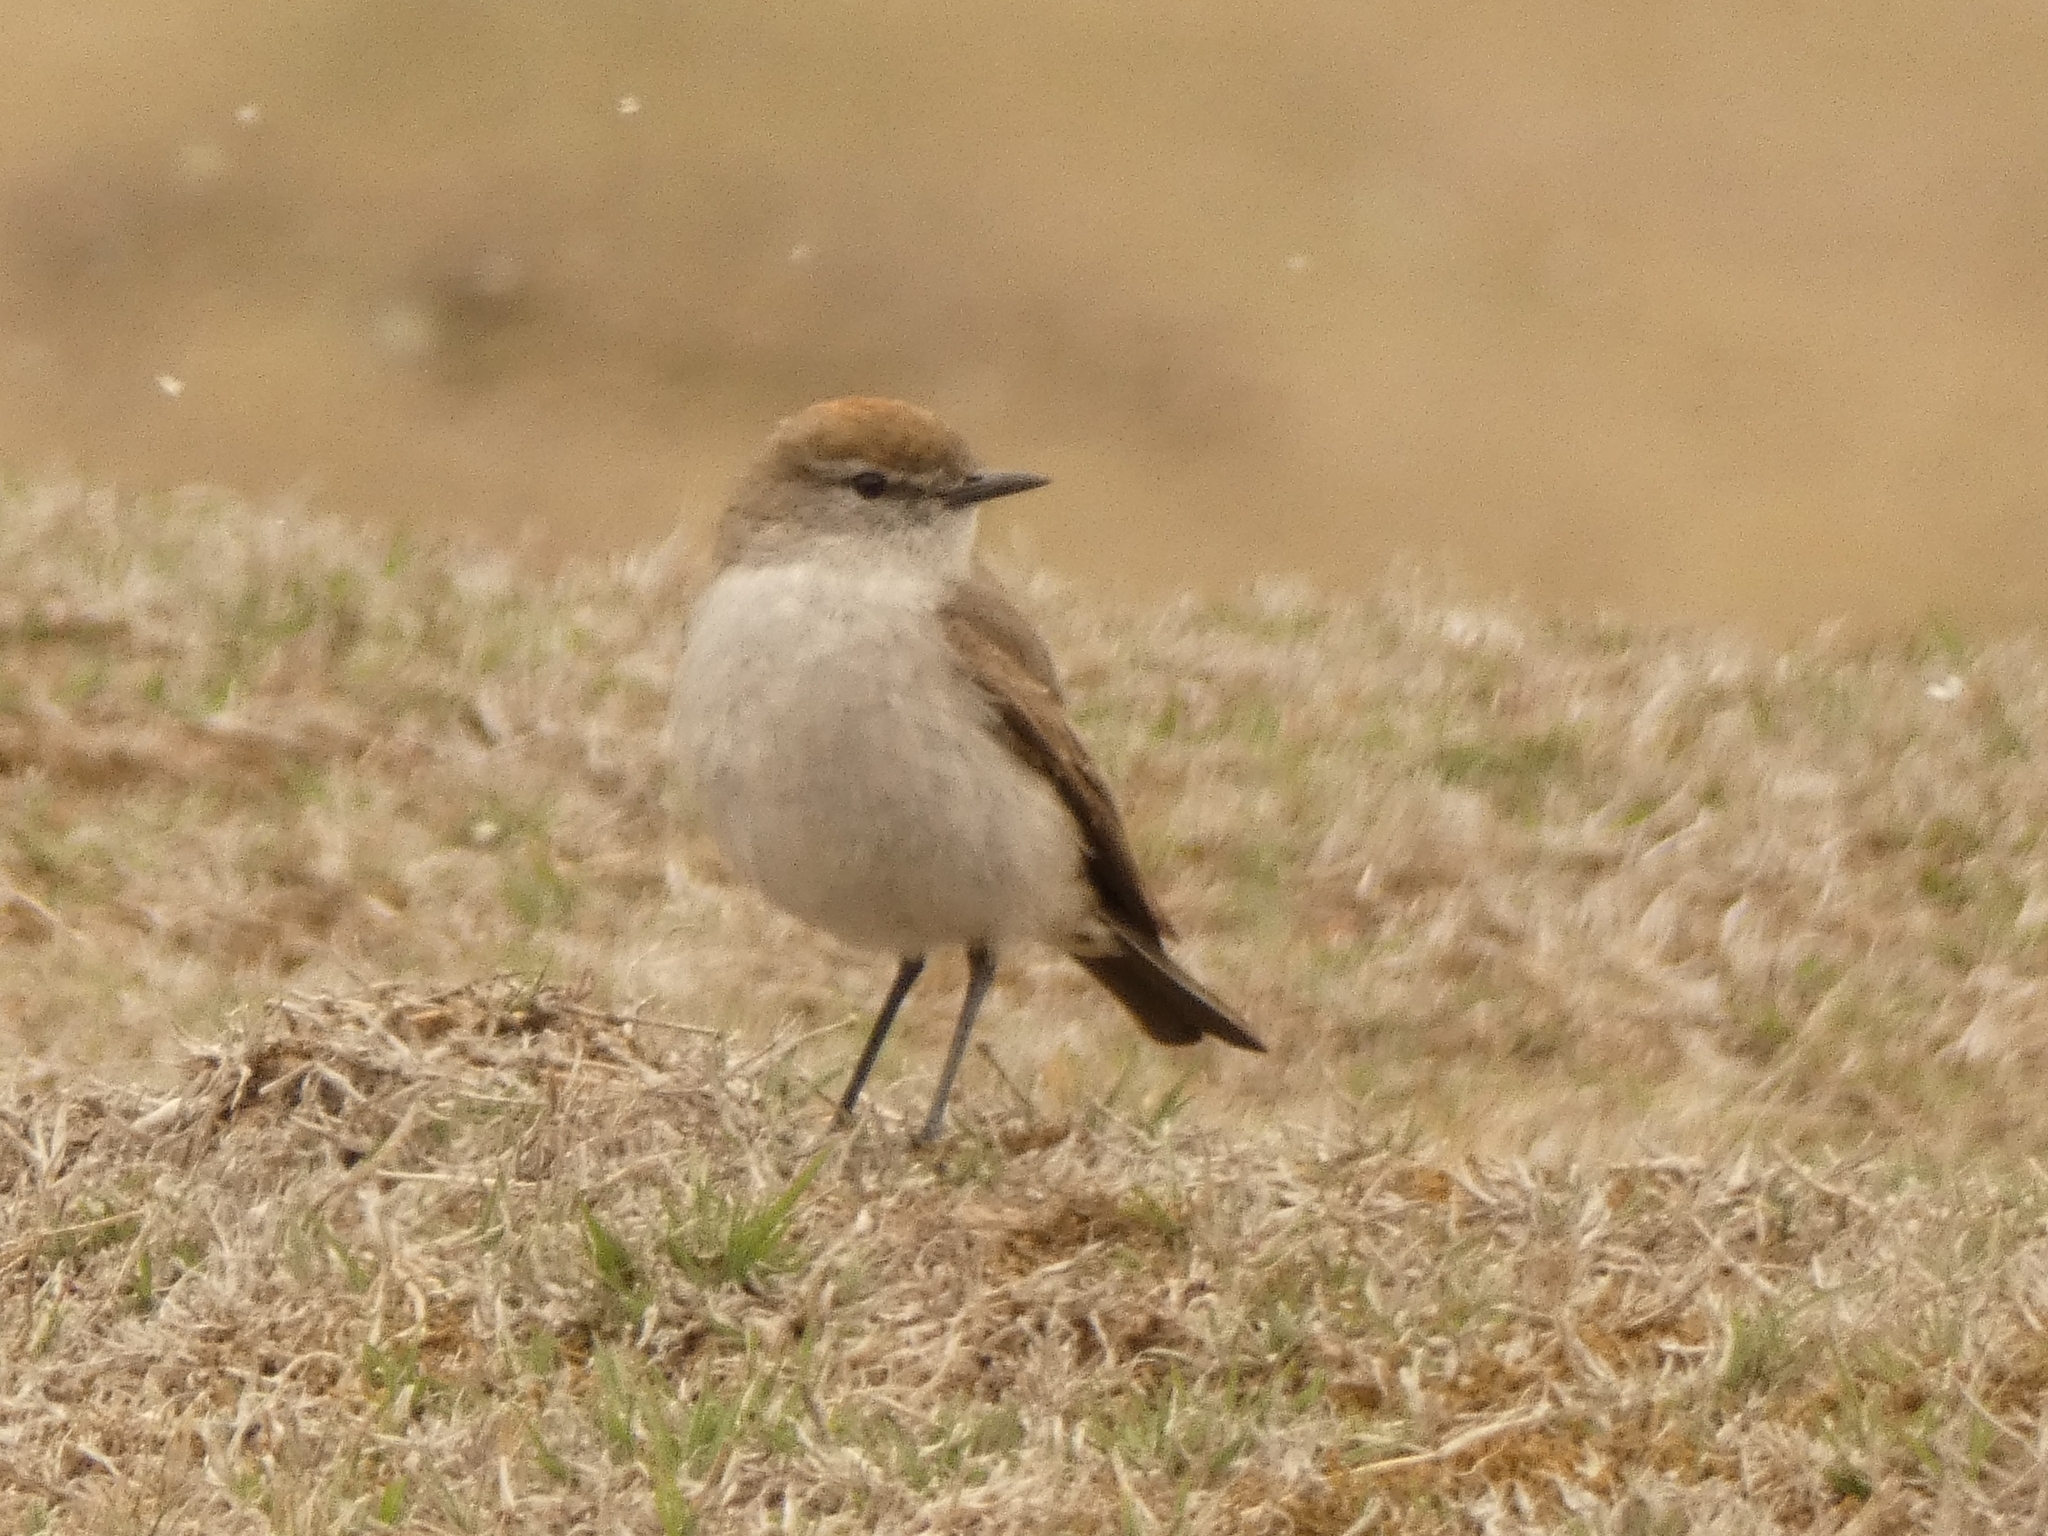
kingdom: Animalia
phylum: Chordata
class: Aves
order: Passeriformes
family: Tyrannidae
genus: Muscisaxicola
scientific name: Muscisaxicola albilora
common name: White-browed ground tyrant
